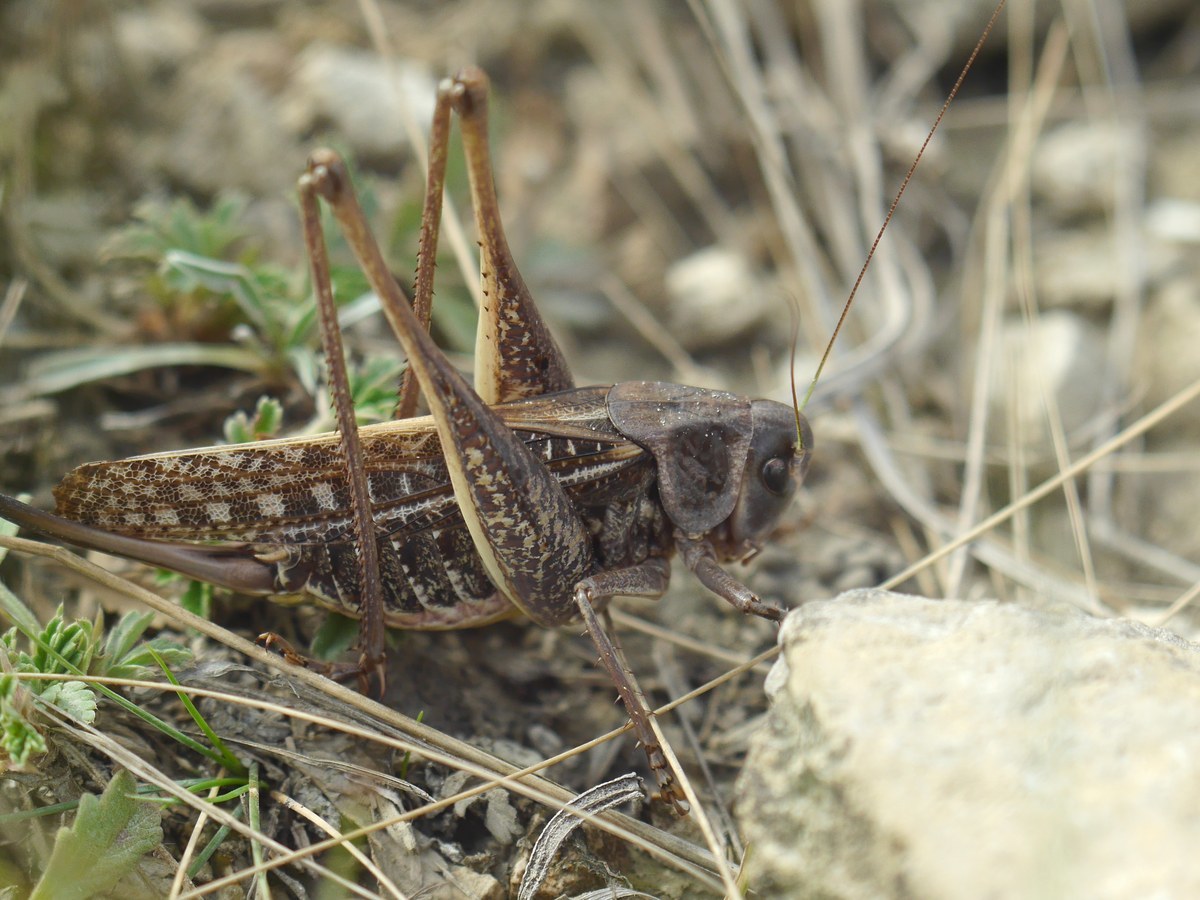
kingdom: Animalia
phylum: Arthropoda
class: Insecta
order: Orthoptera
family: Tettigoniidae
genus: Decticus
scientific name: Decticus verrucivorus
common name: Wart-biter
